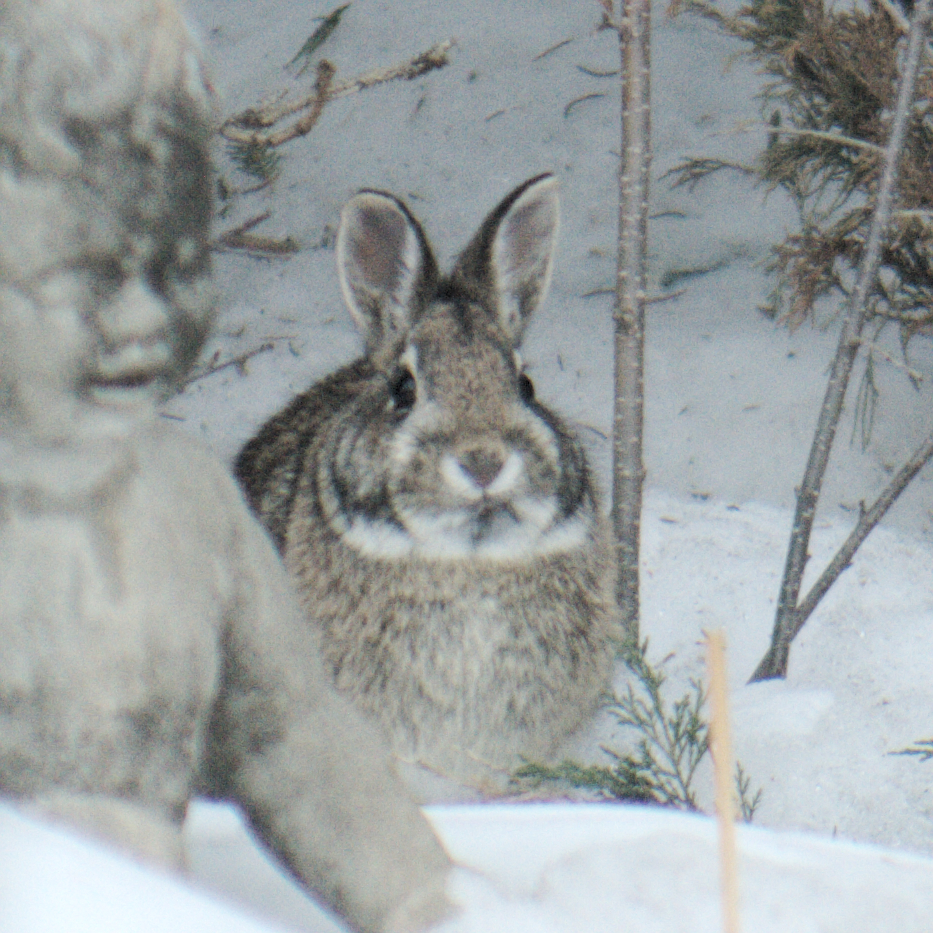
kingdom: Animalia
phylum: Chordata
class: Mammalia
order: Lagomorpha
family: Leporidae
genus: Sylvilagus
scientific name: Sylvilagus floridanus
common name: Eastern cottontail
